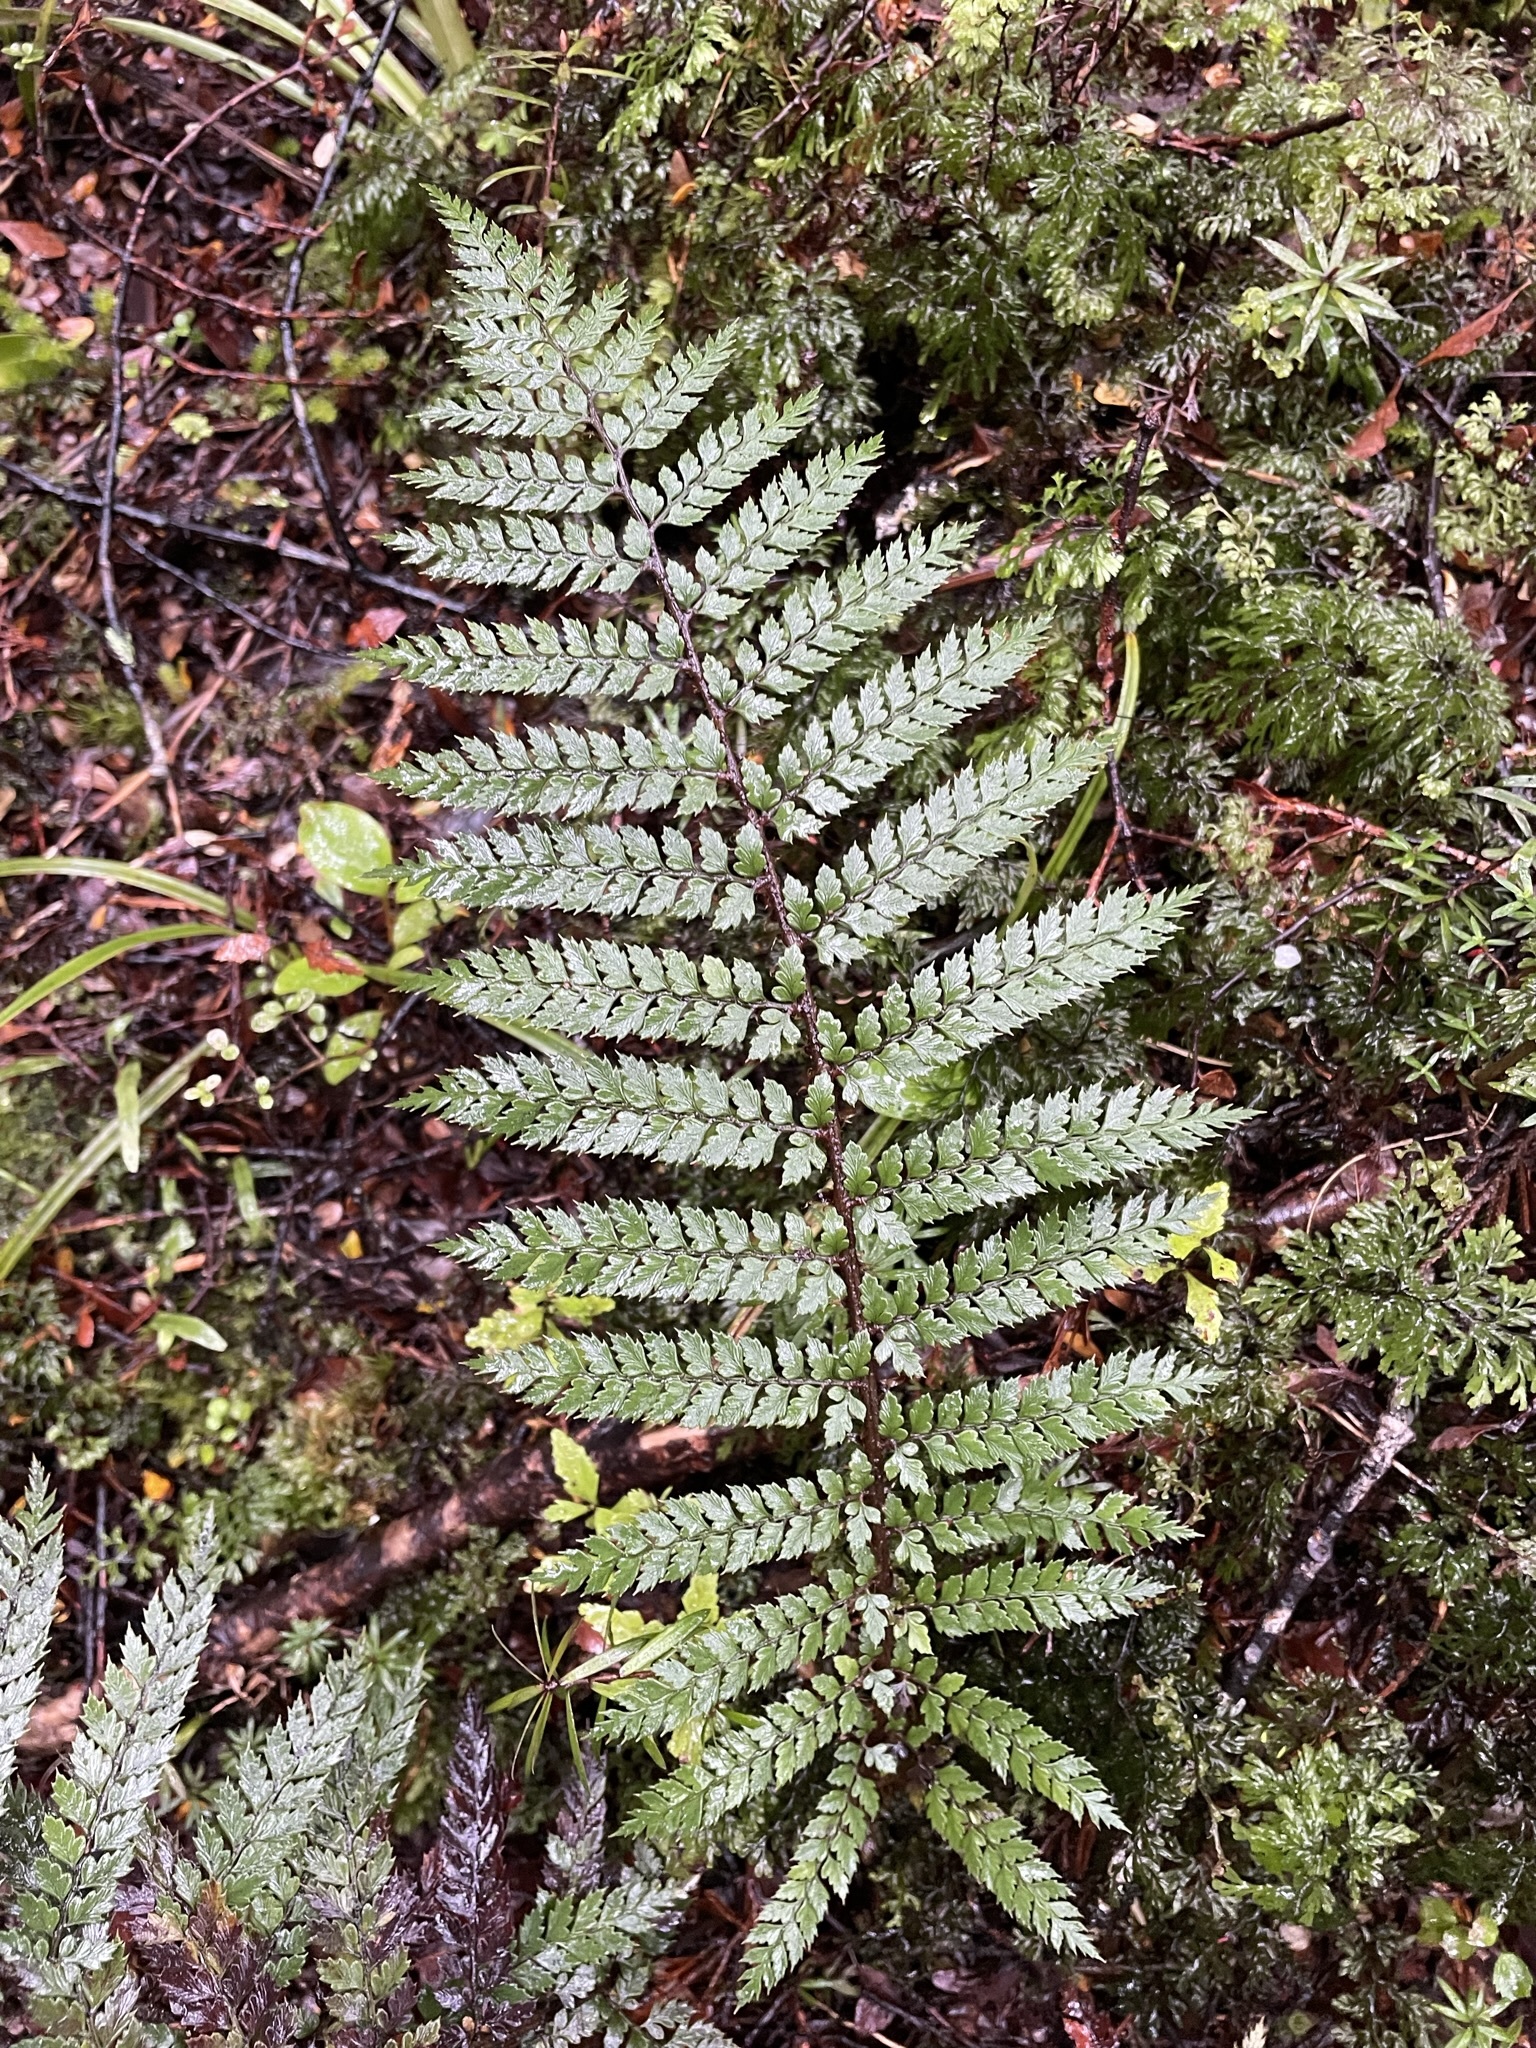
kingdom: Plantae
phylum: Tracheophyta
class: Polypodiopsida
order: Polypodiales
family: Dryopteridaceae
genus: Polystichum
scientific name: Polystichum vestitum
